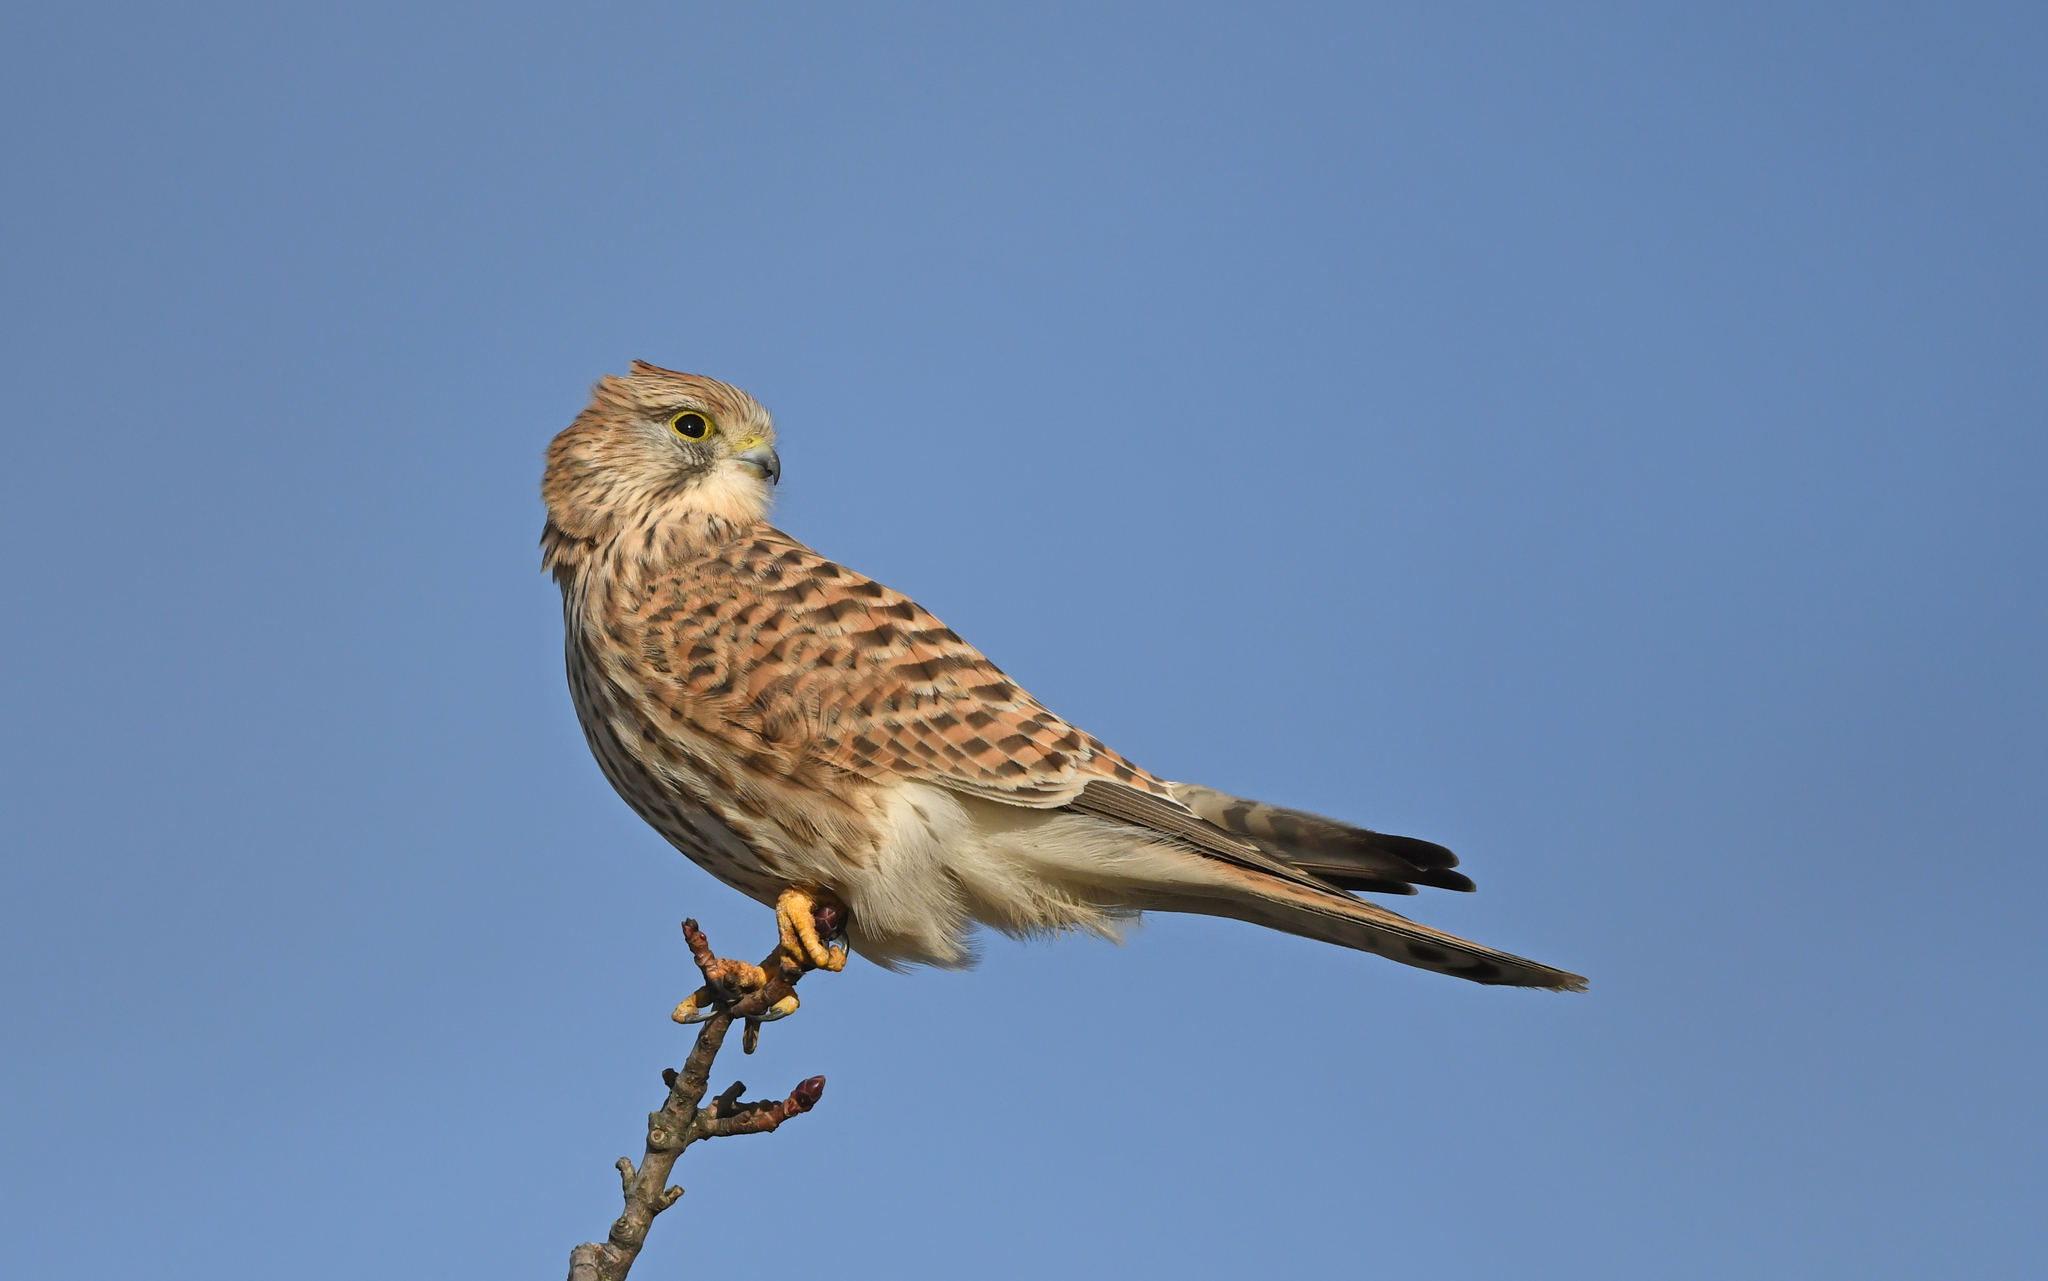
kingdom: Animalia
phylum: Chordata
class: Aves
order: Falconiformes
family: Falconidae
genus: Falco
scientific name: Falco tinnunculus
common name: Common kestrel
